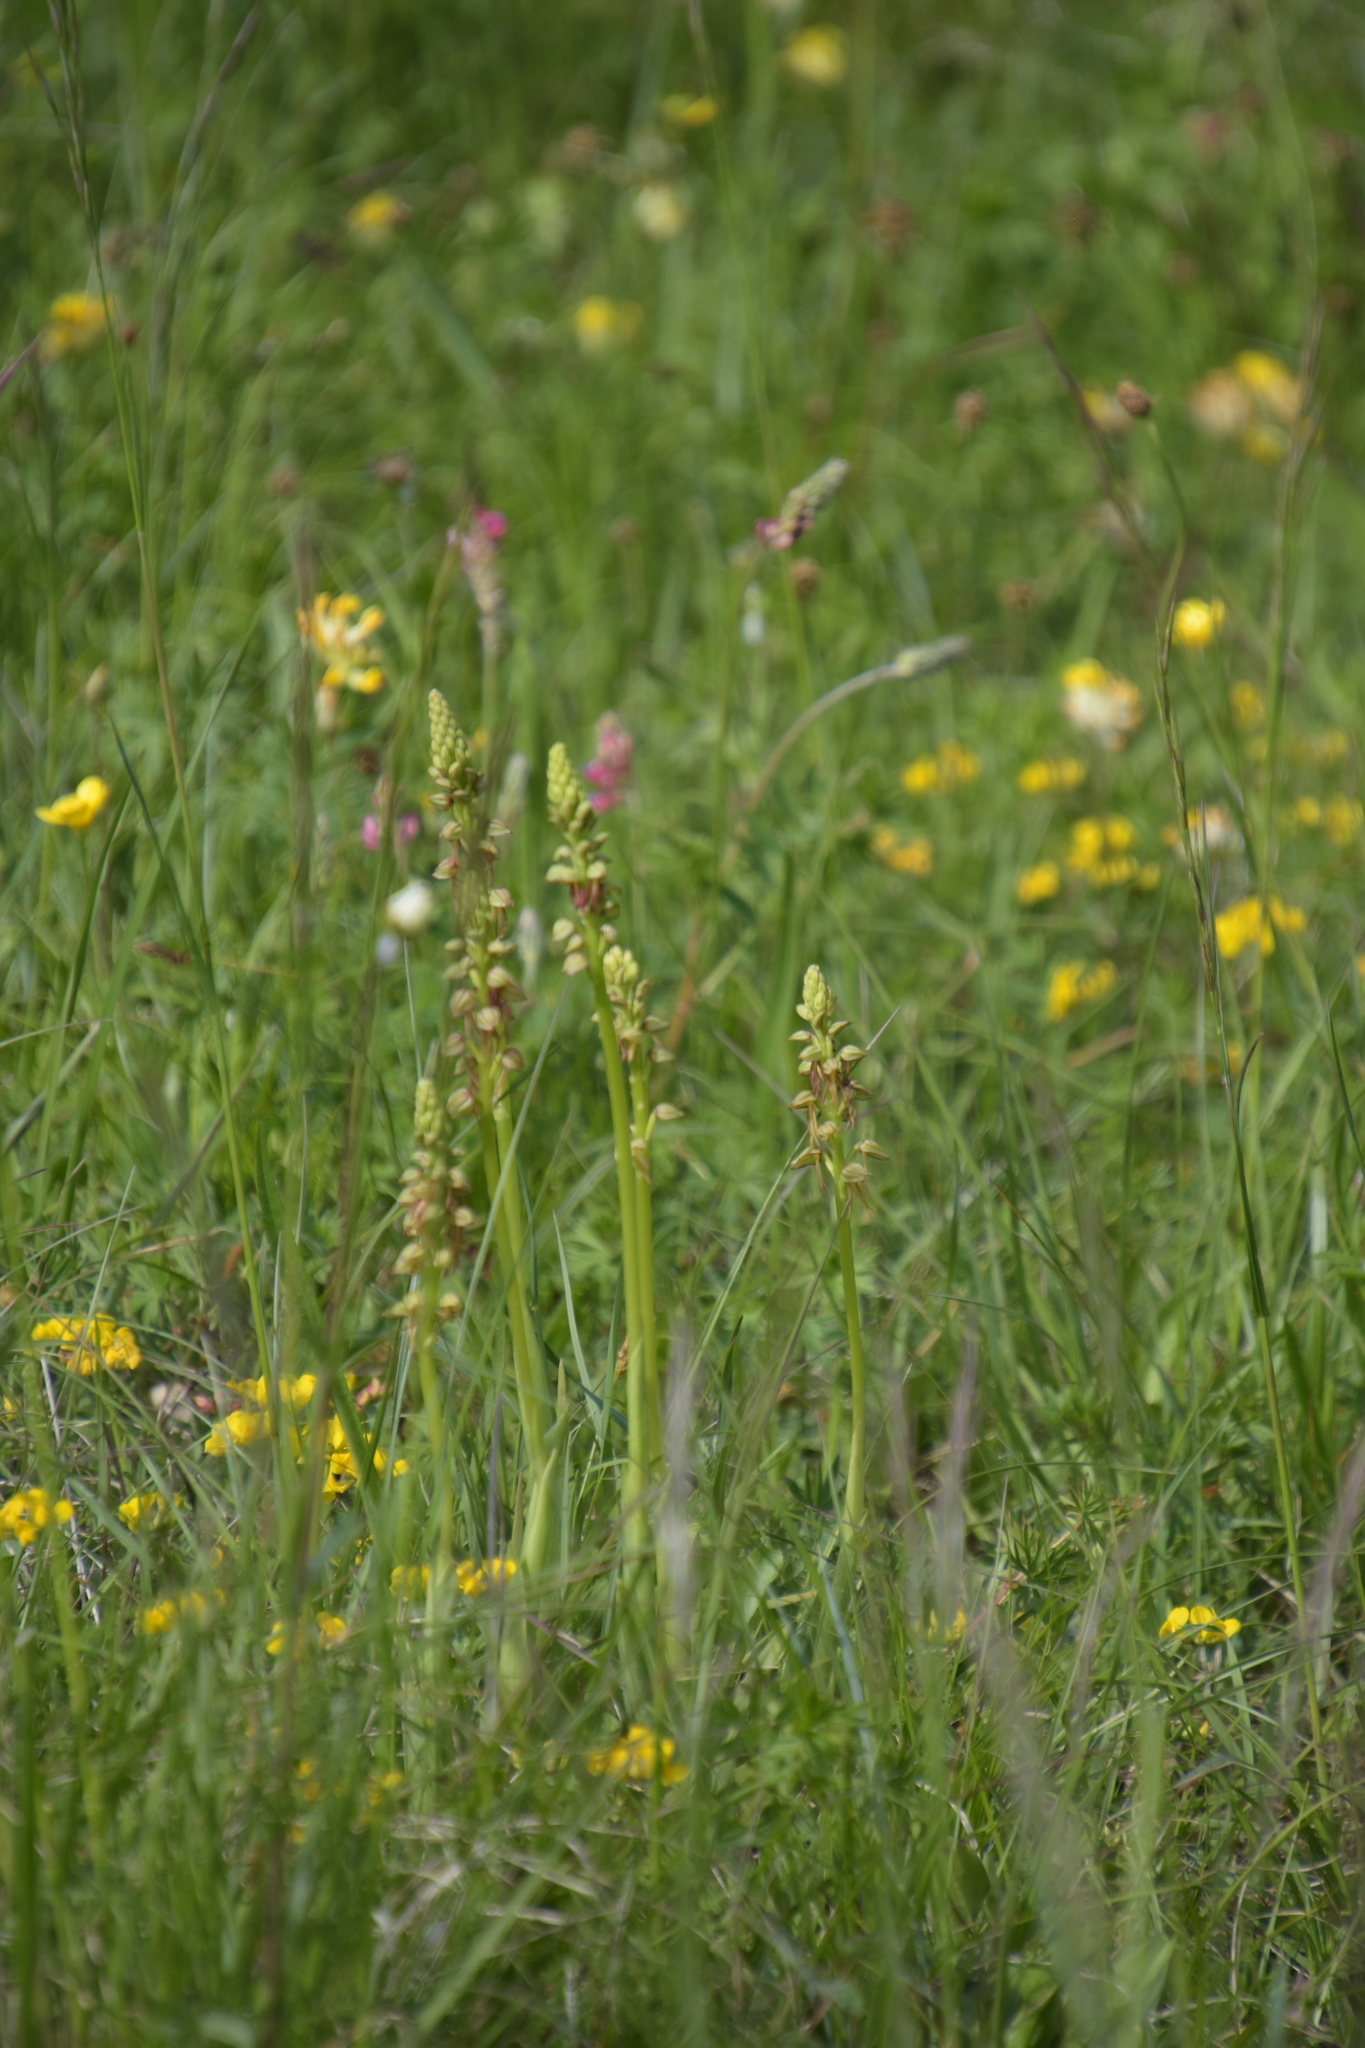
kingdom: Plantae
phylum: Tracheophyta
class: Liliopsida
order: Asparagales
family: Orchidaceae
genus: Orchis
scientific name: Orchis anthropophora
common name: Man orchid
